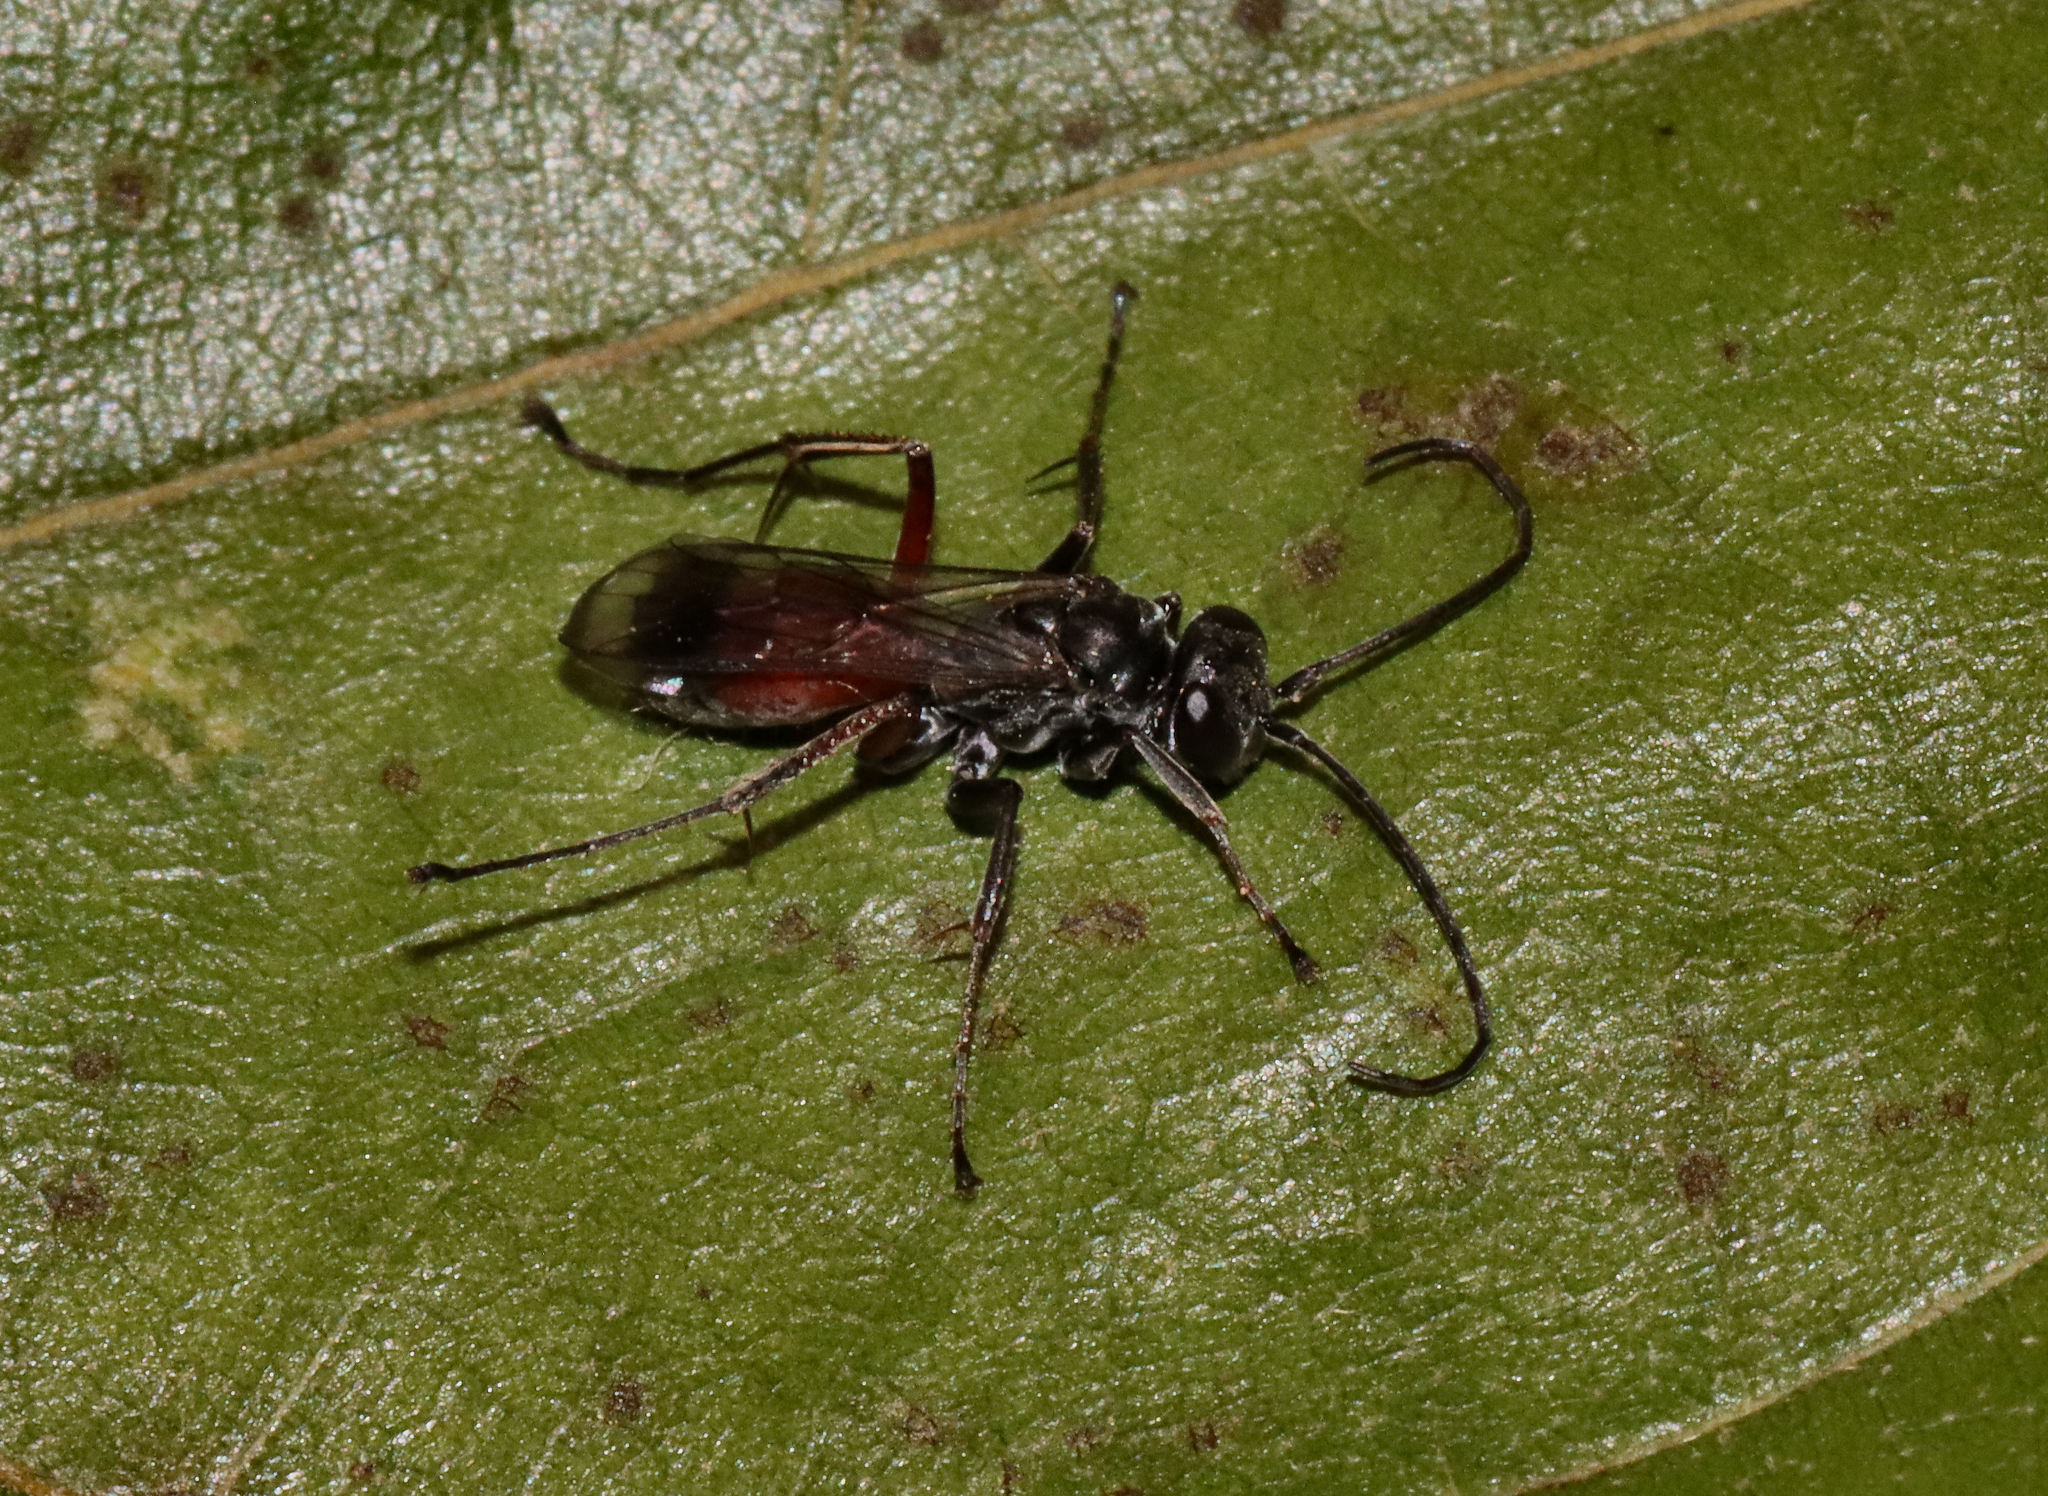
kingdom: Animalia
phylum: Arthropoda
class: Insecta
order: Hymenoptera
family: Pompilidae
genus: Caliadurgus
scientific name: Caliadurgus fasciatellus
